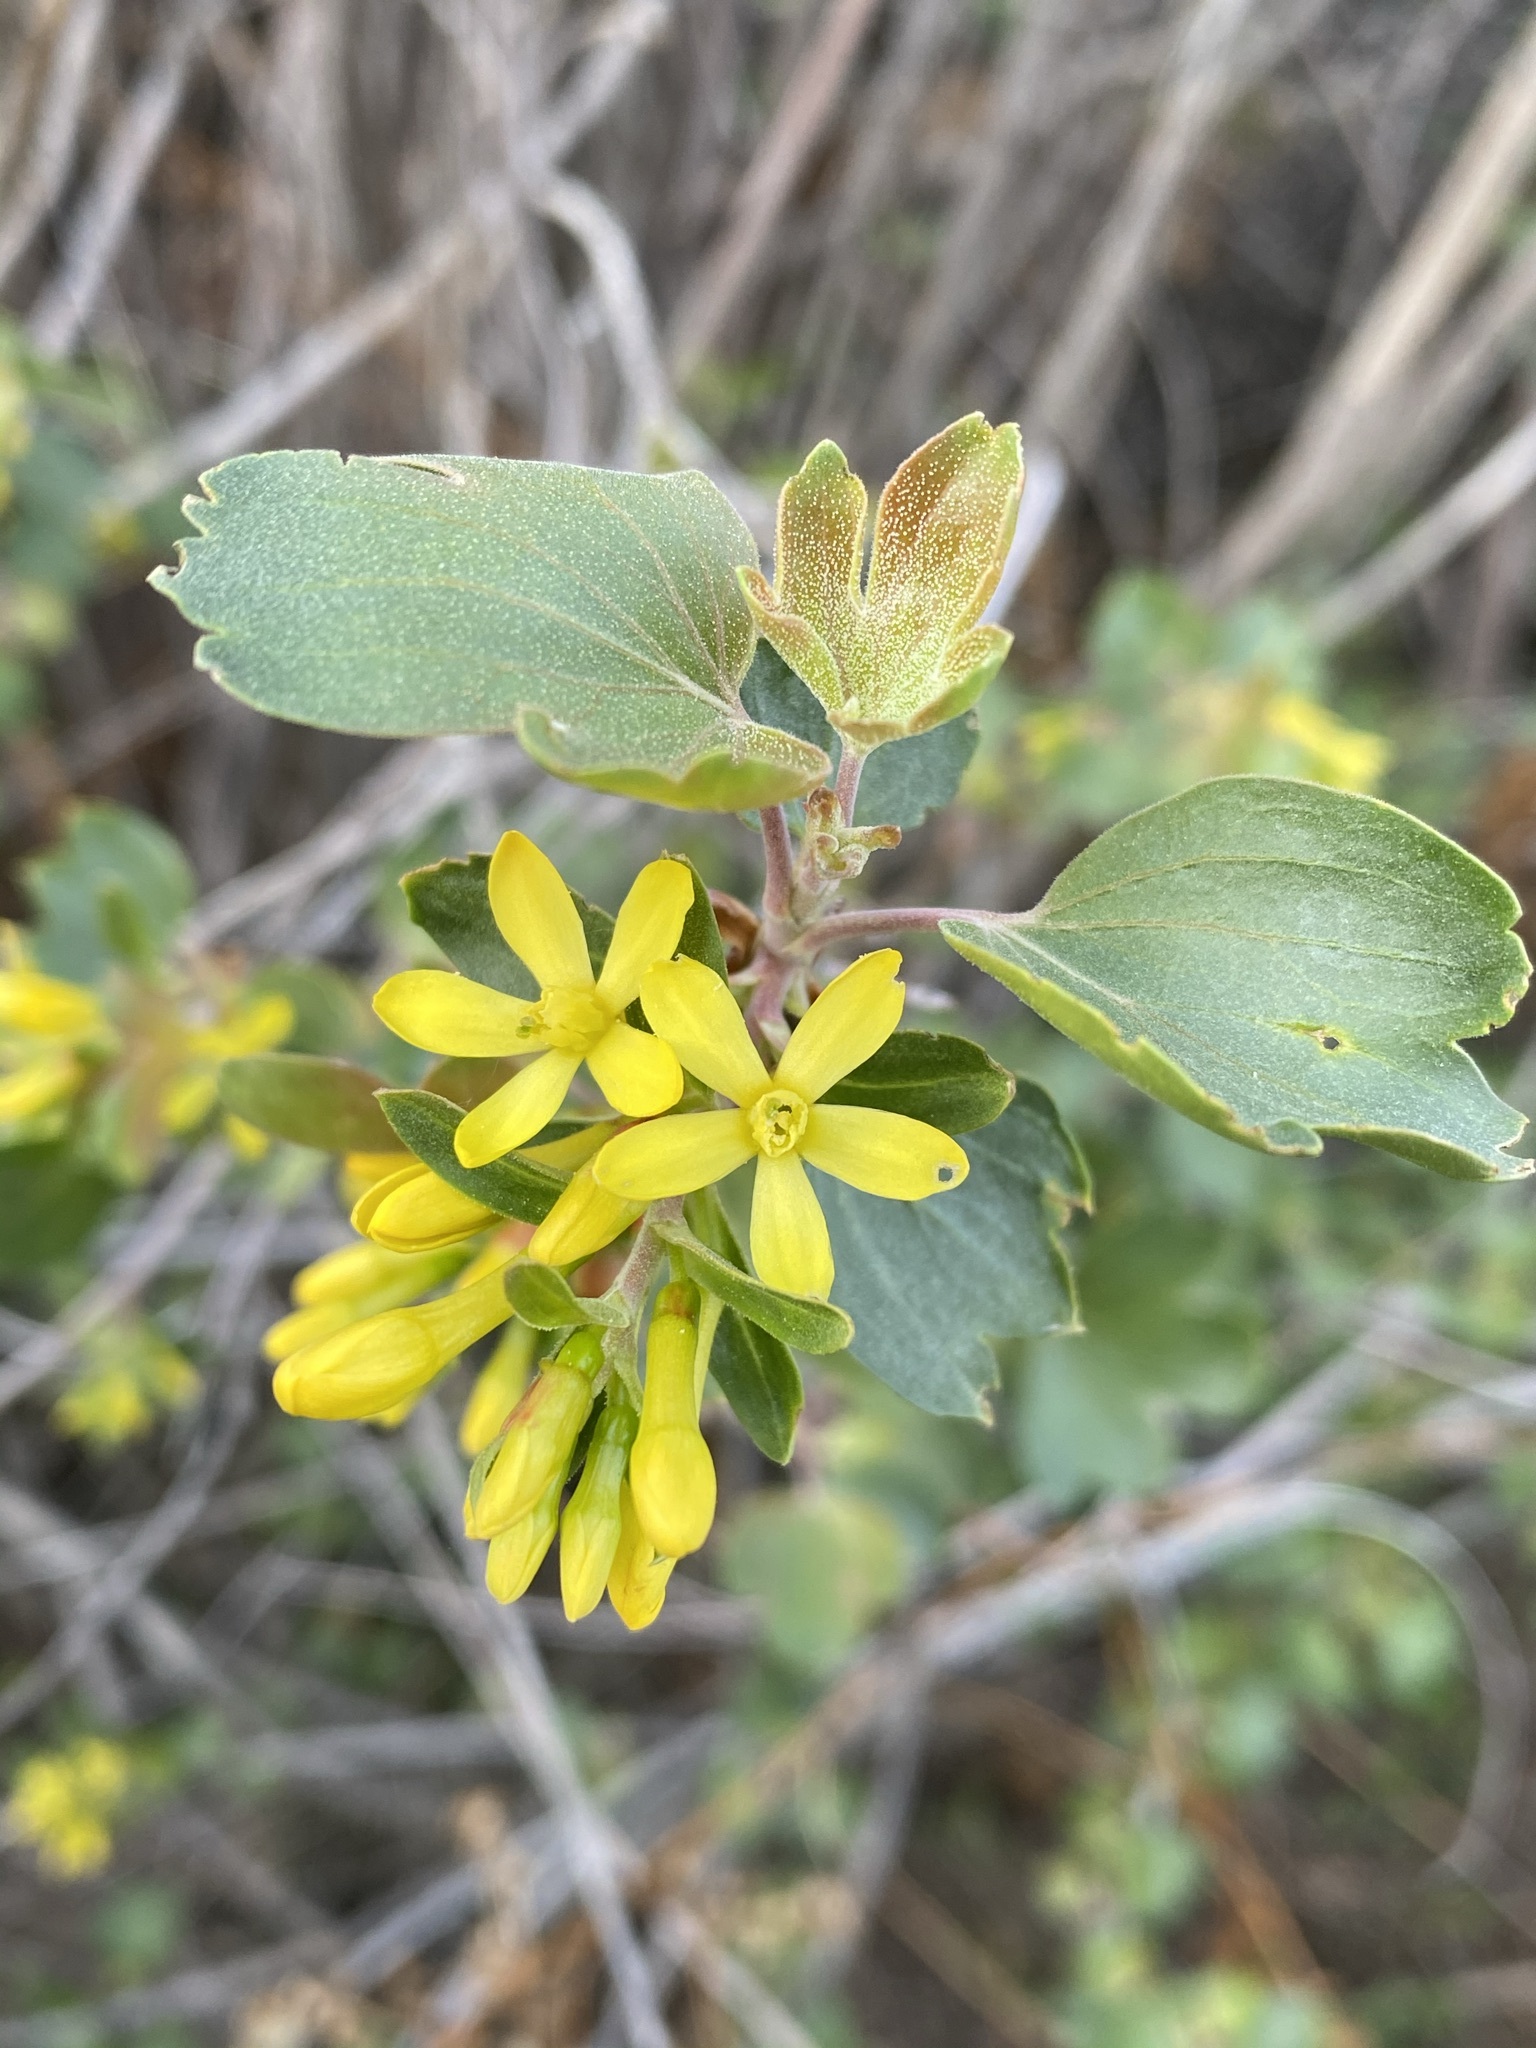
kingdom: Plantae
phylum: Tracheophyta
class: Magnoliopsida
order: Saxifragales
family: Grossulariaceae
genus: Ribes
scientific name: Ribes aureum
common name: Golden currant
